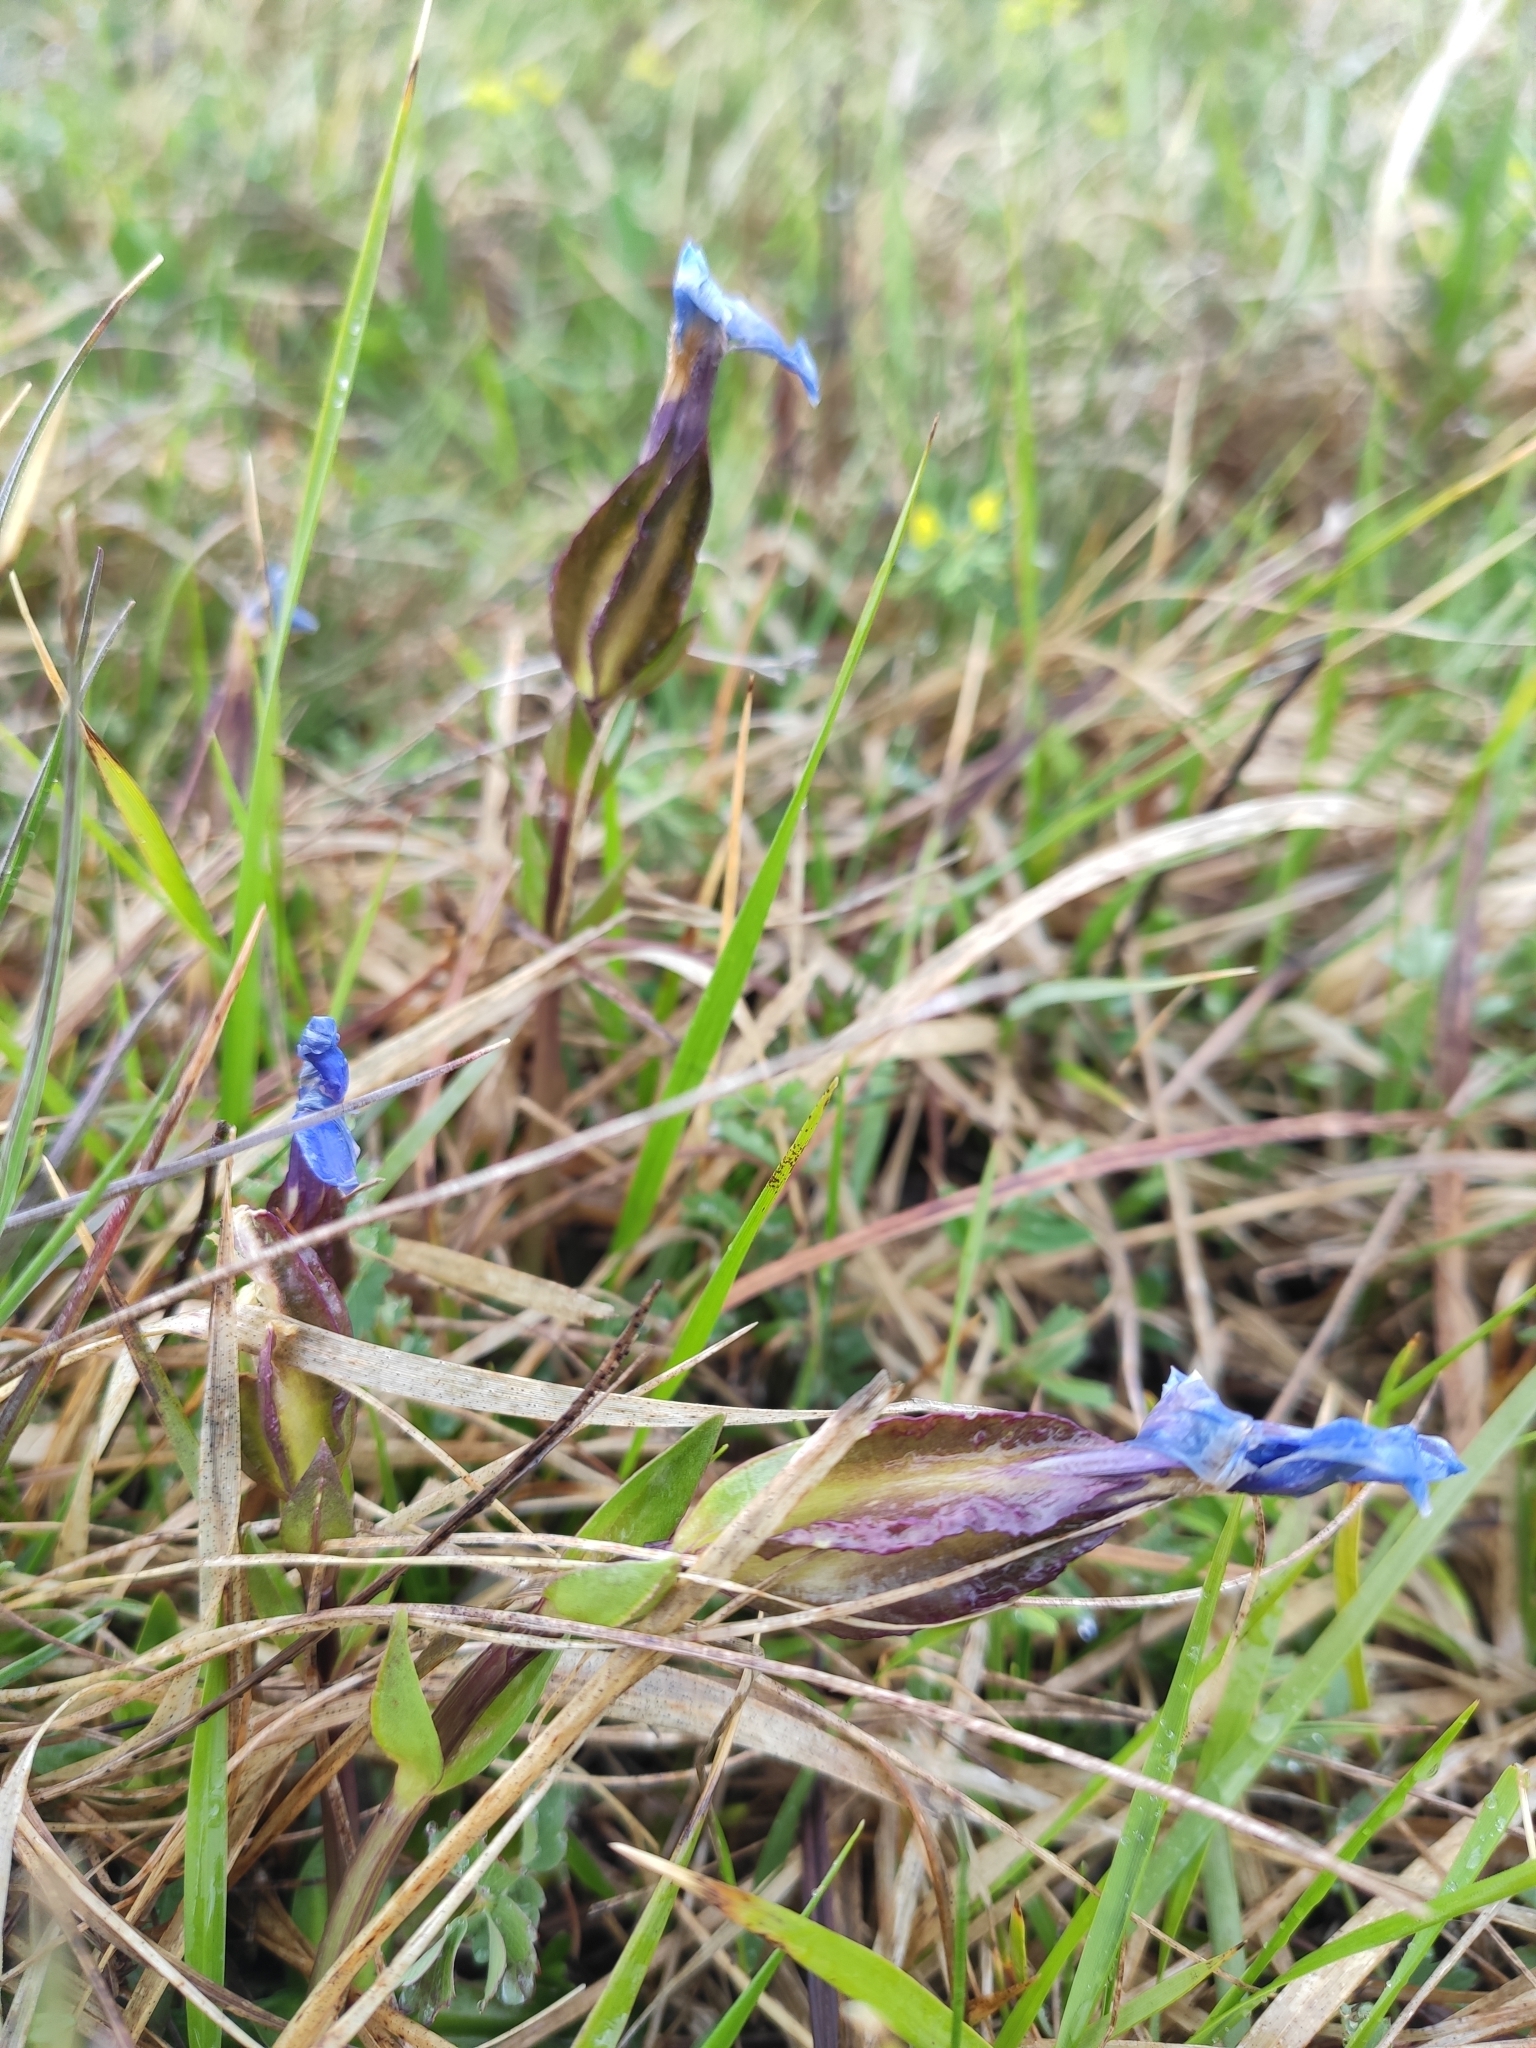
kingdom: Plantae
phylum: Tracheophyta
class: Magnoliopsida
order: Gentianales
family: Gentianaceae
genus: Gentiana
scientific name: Gentiana verna
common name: Spring gentian
